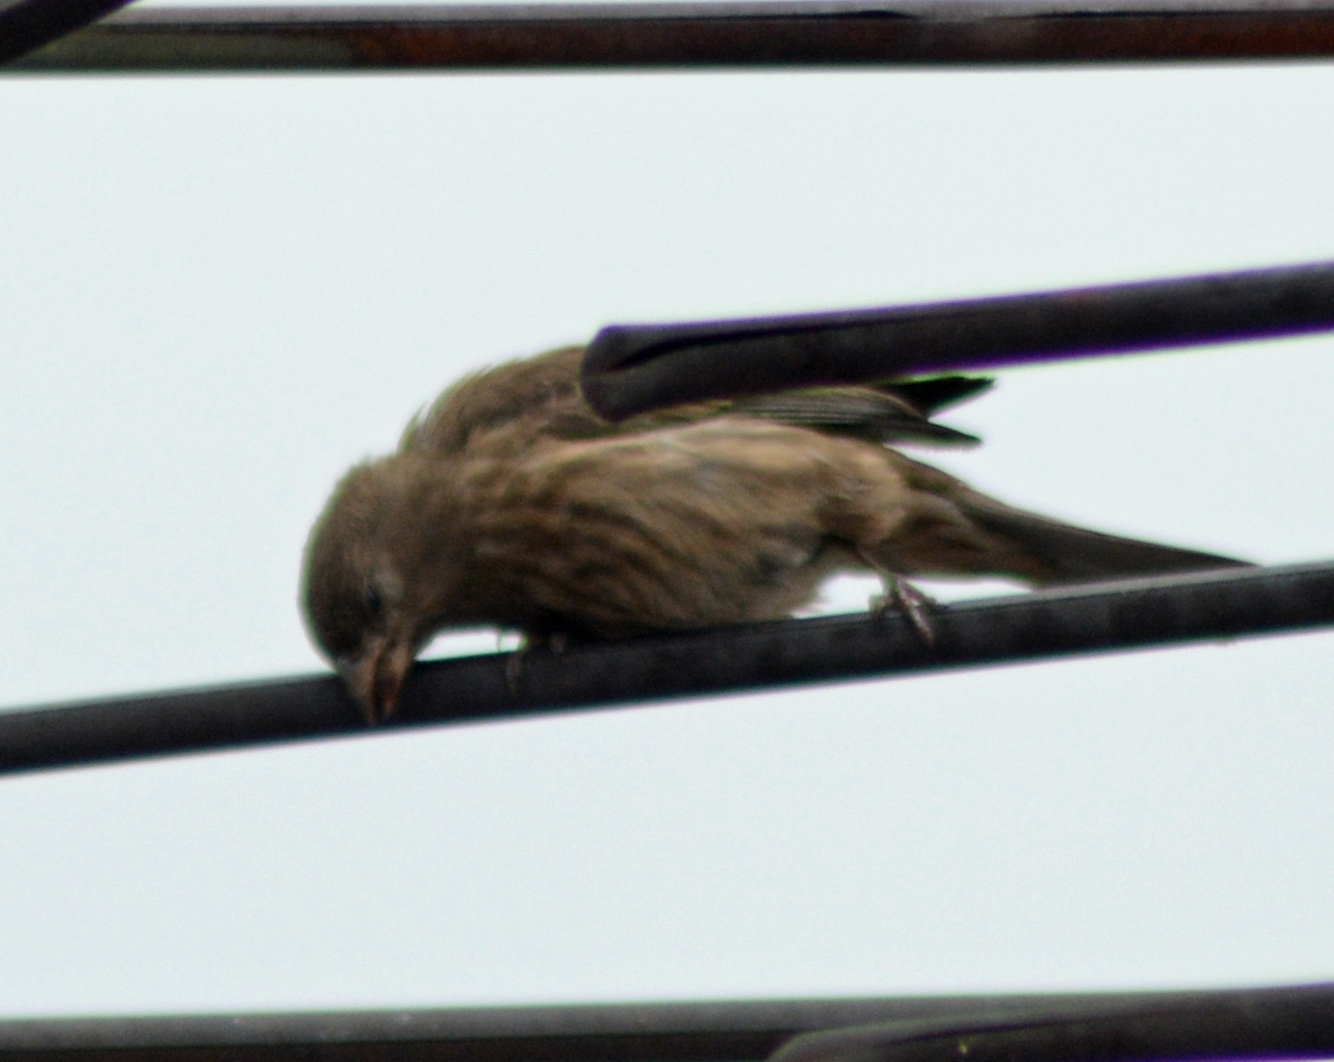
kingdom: Animalia
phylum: Chordata
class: Aves
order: Passeriformes
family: Fringillidae
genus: Haemorhous
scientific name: Haemorhous mexicanus
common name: House finch
